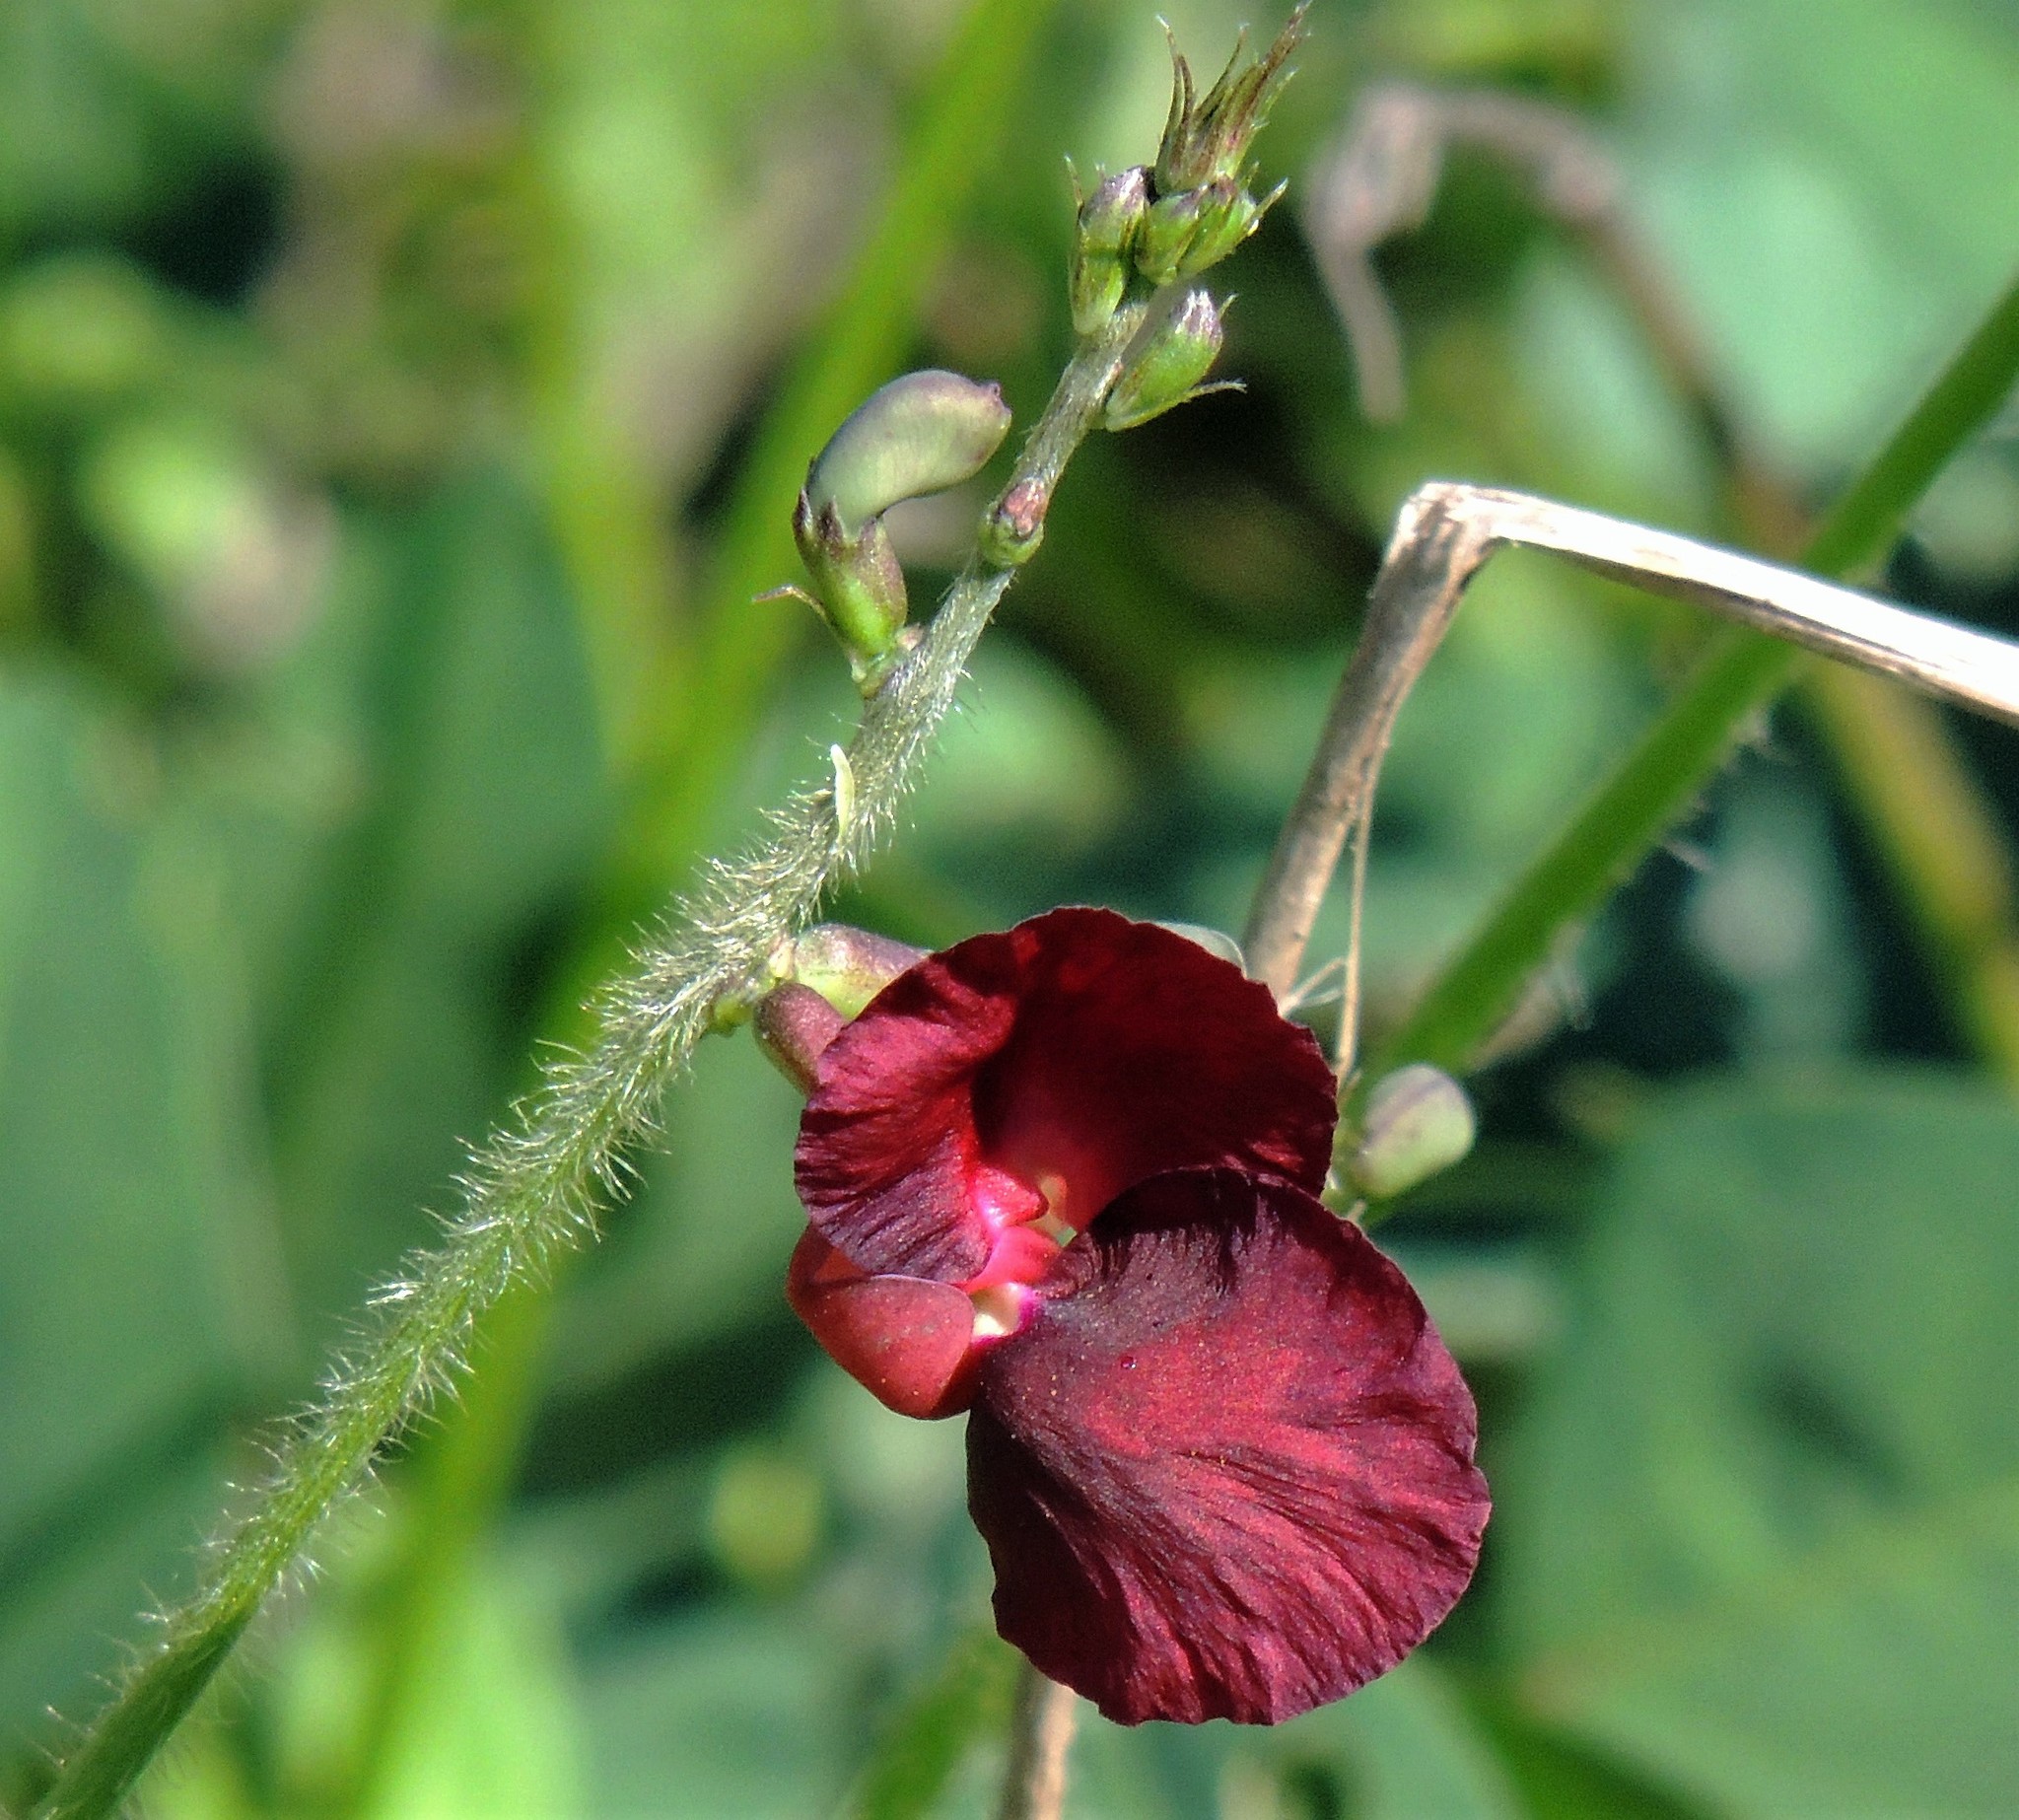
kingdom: Plantae
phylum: Tracheophyta
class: Magnoliopsida
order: Fabales
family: Fabaceae
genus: Macroptilium
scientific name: Macroptilium lathyroides
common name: Wild bushbean
